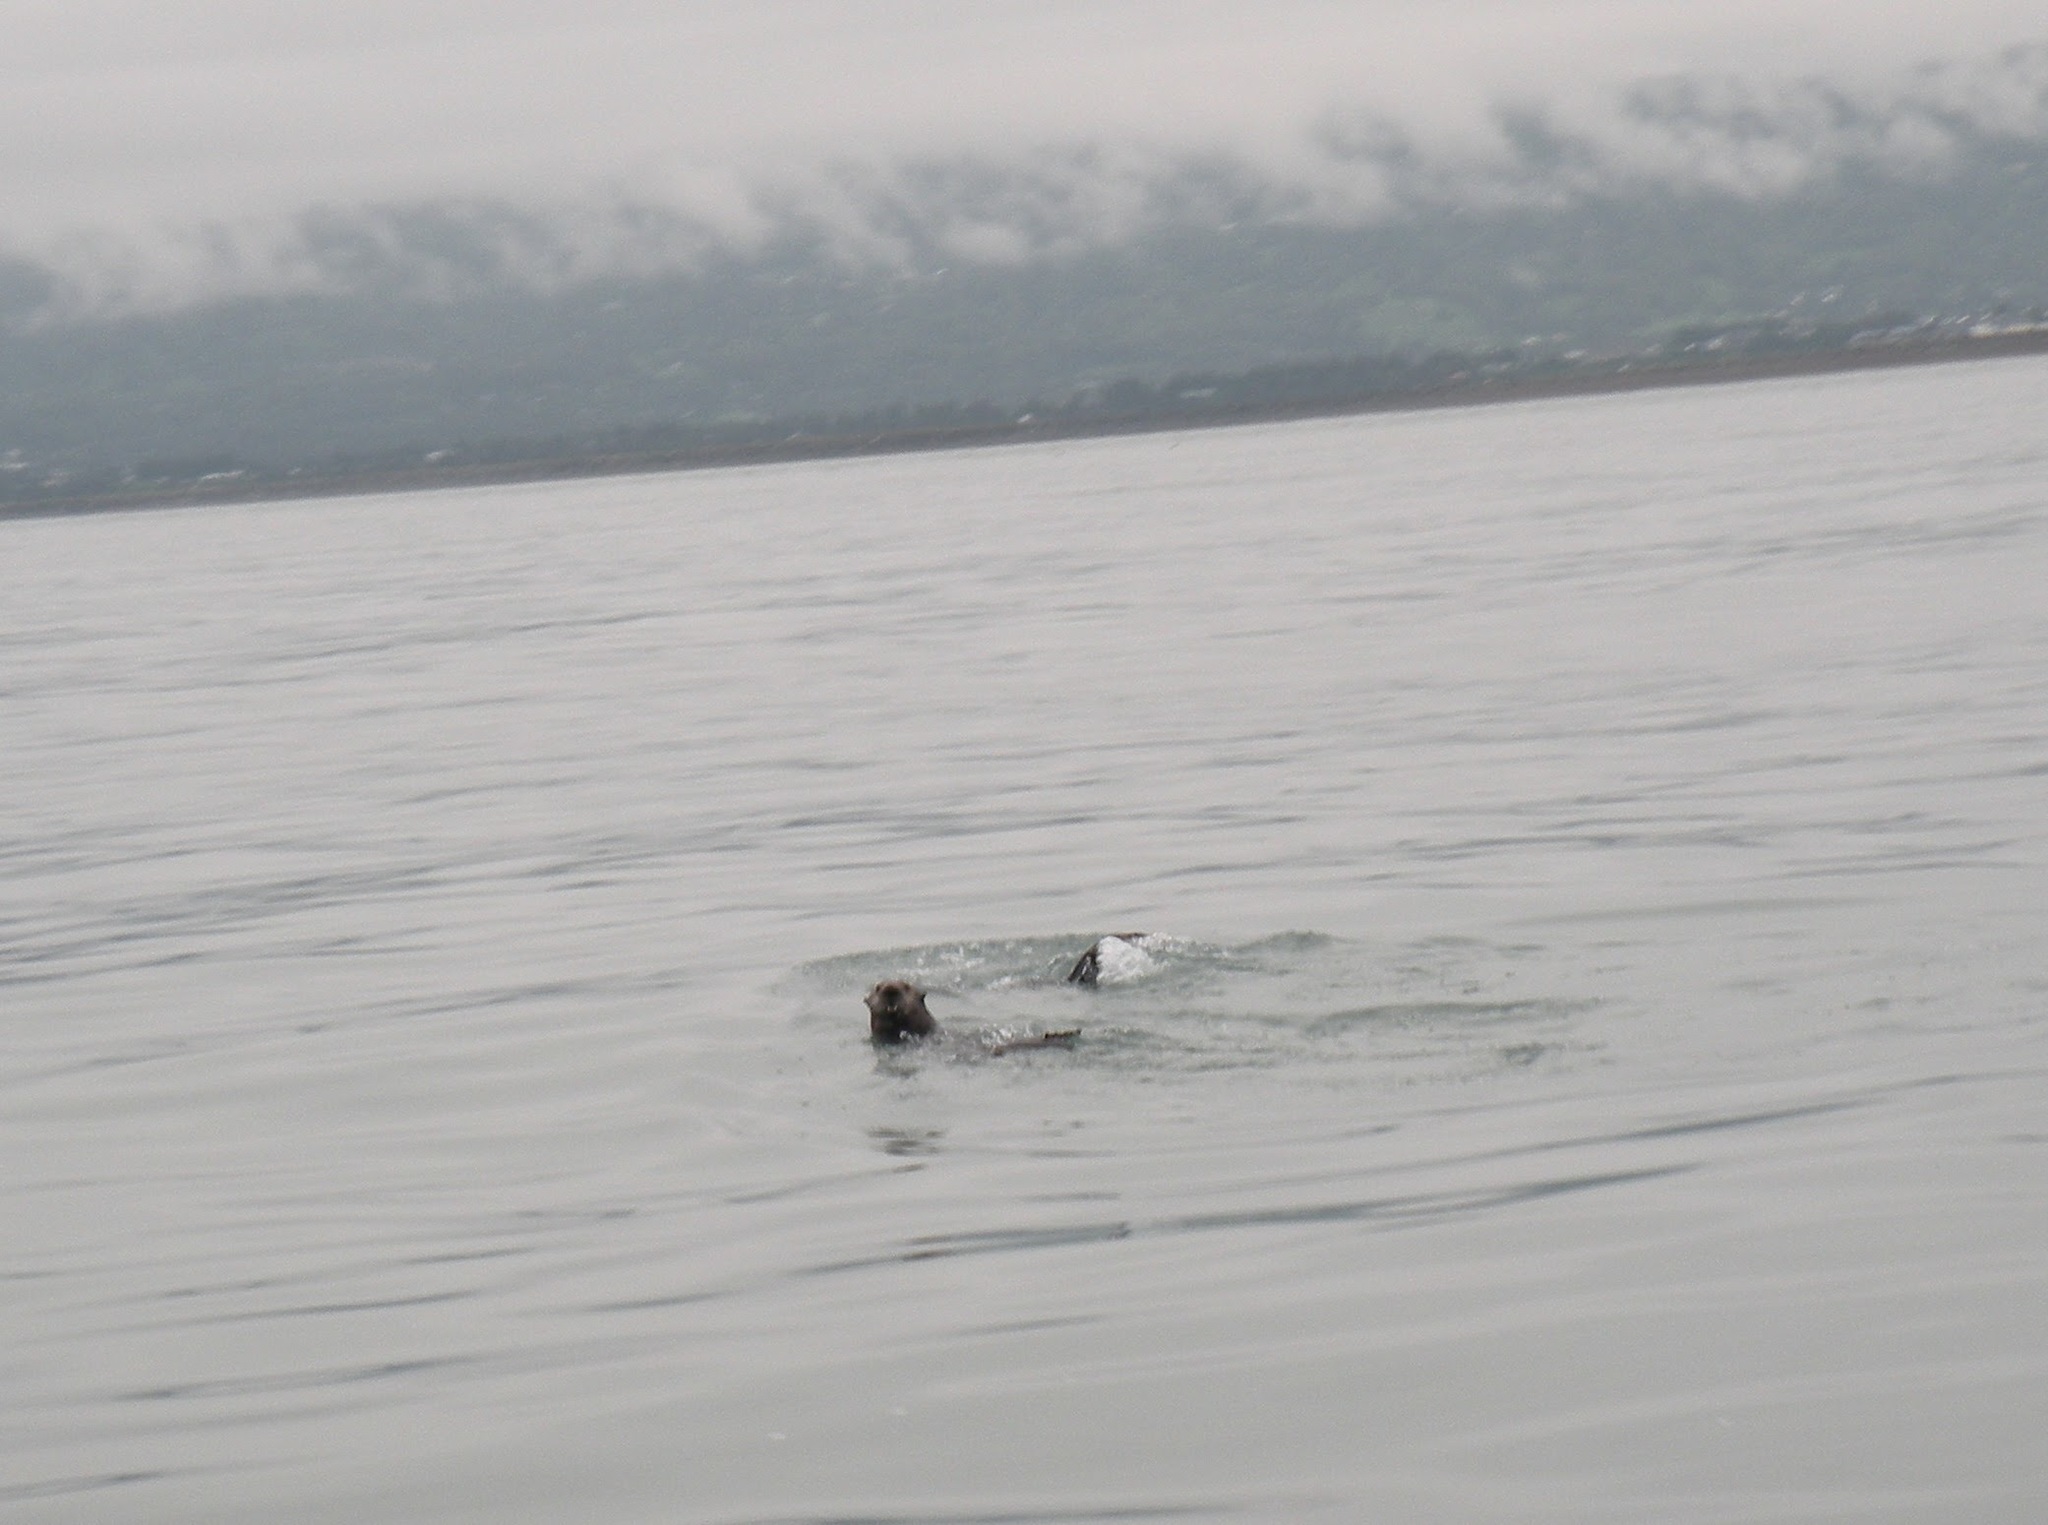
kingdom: Animalia
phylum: Chordata
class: Mammalia
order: Carnivora
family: Mustelidae
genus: Enhydra
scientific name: Enhydra lutris
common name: Sea otter
